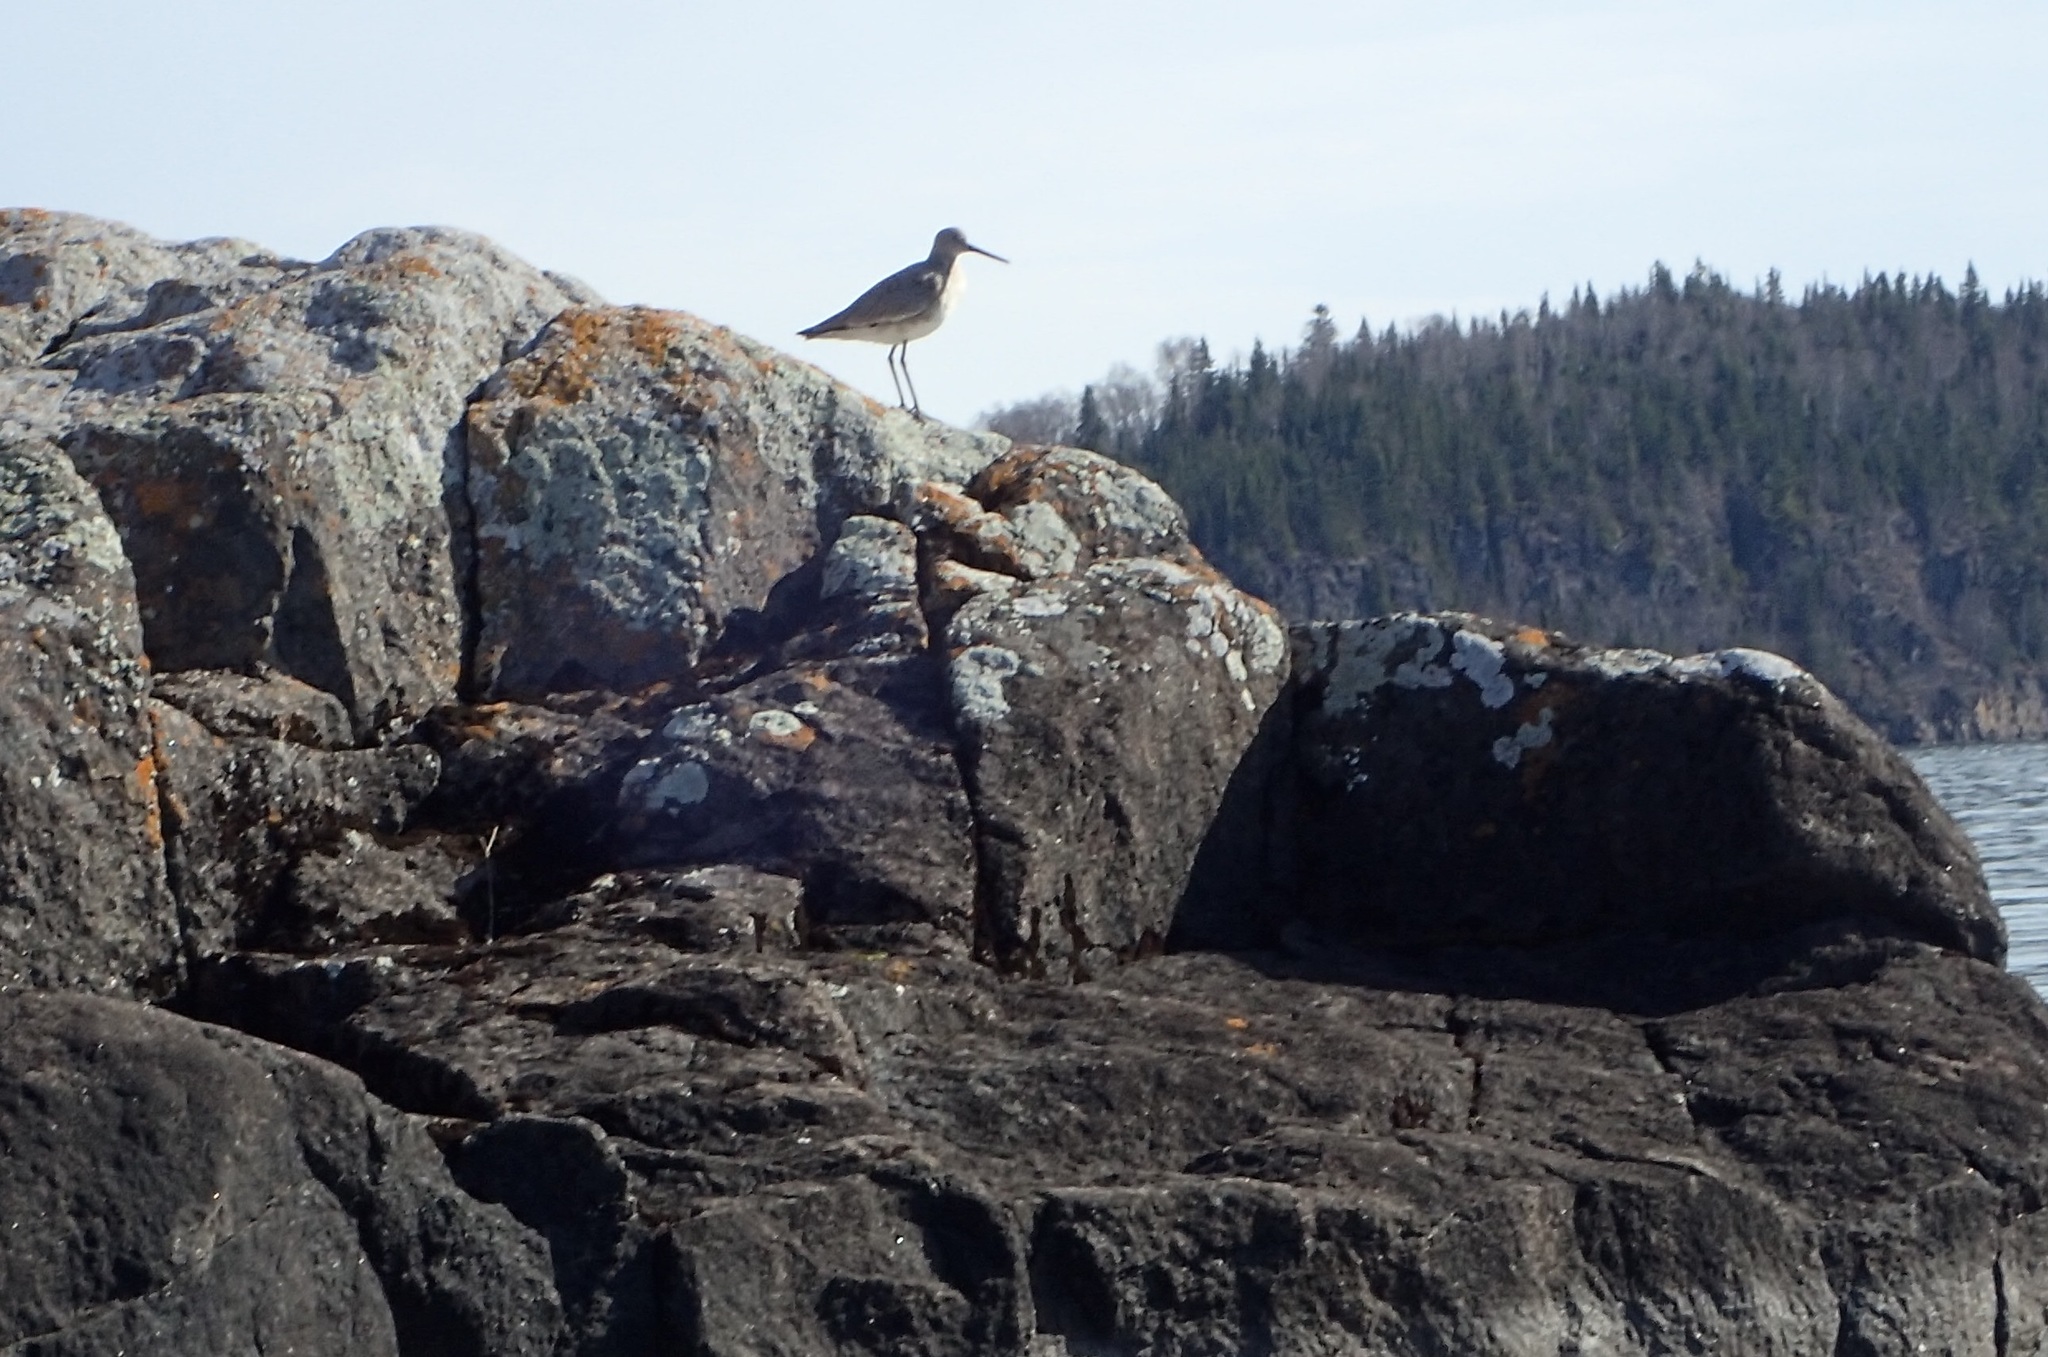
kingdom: Animalia
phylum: Chordata
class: Aves
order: Charadriiformes
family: Scolopacidae
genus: Tringa
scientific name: Tringa semipalmata
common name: Willet
